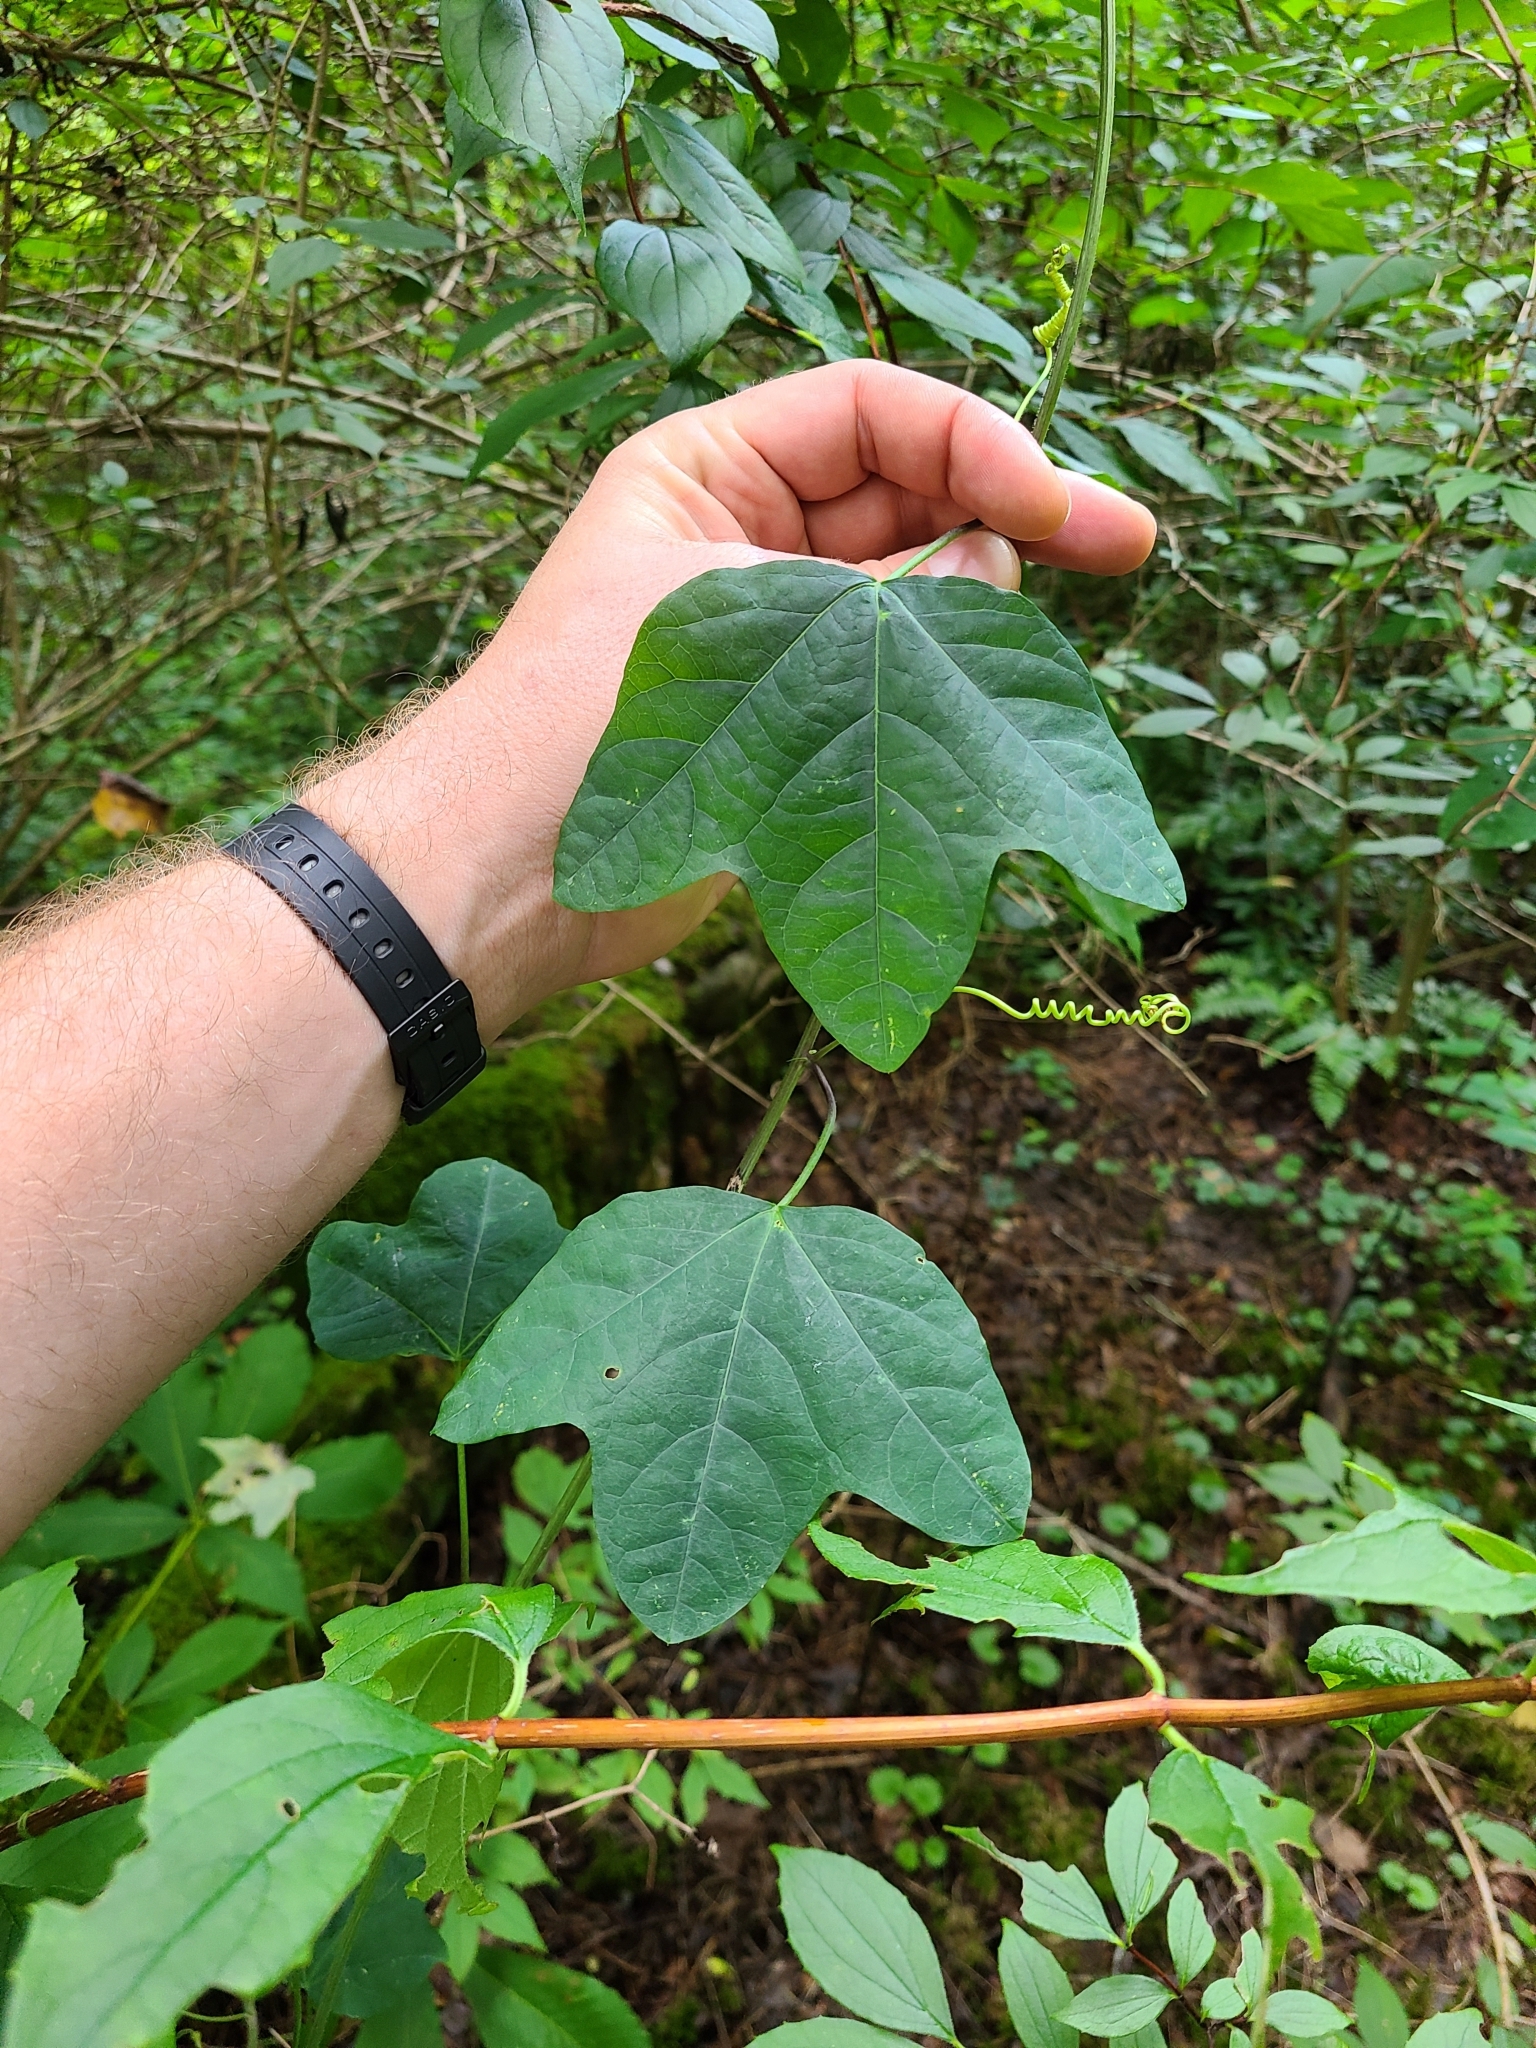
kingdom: Plantae
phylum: Tracheophyta
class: Magnoliopsida
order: Malpighiales
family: Passifloraceae
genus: Passiflora
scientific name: Passiflora lutea
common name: Yellow passionflower
